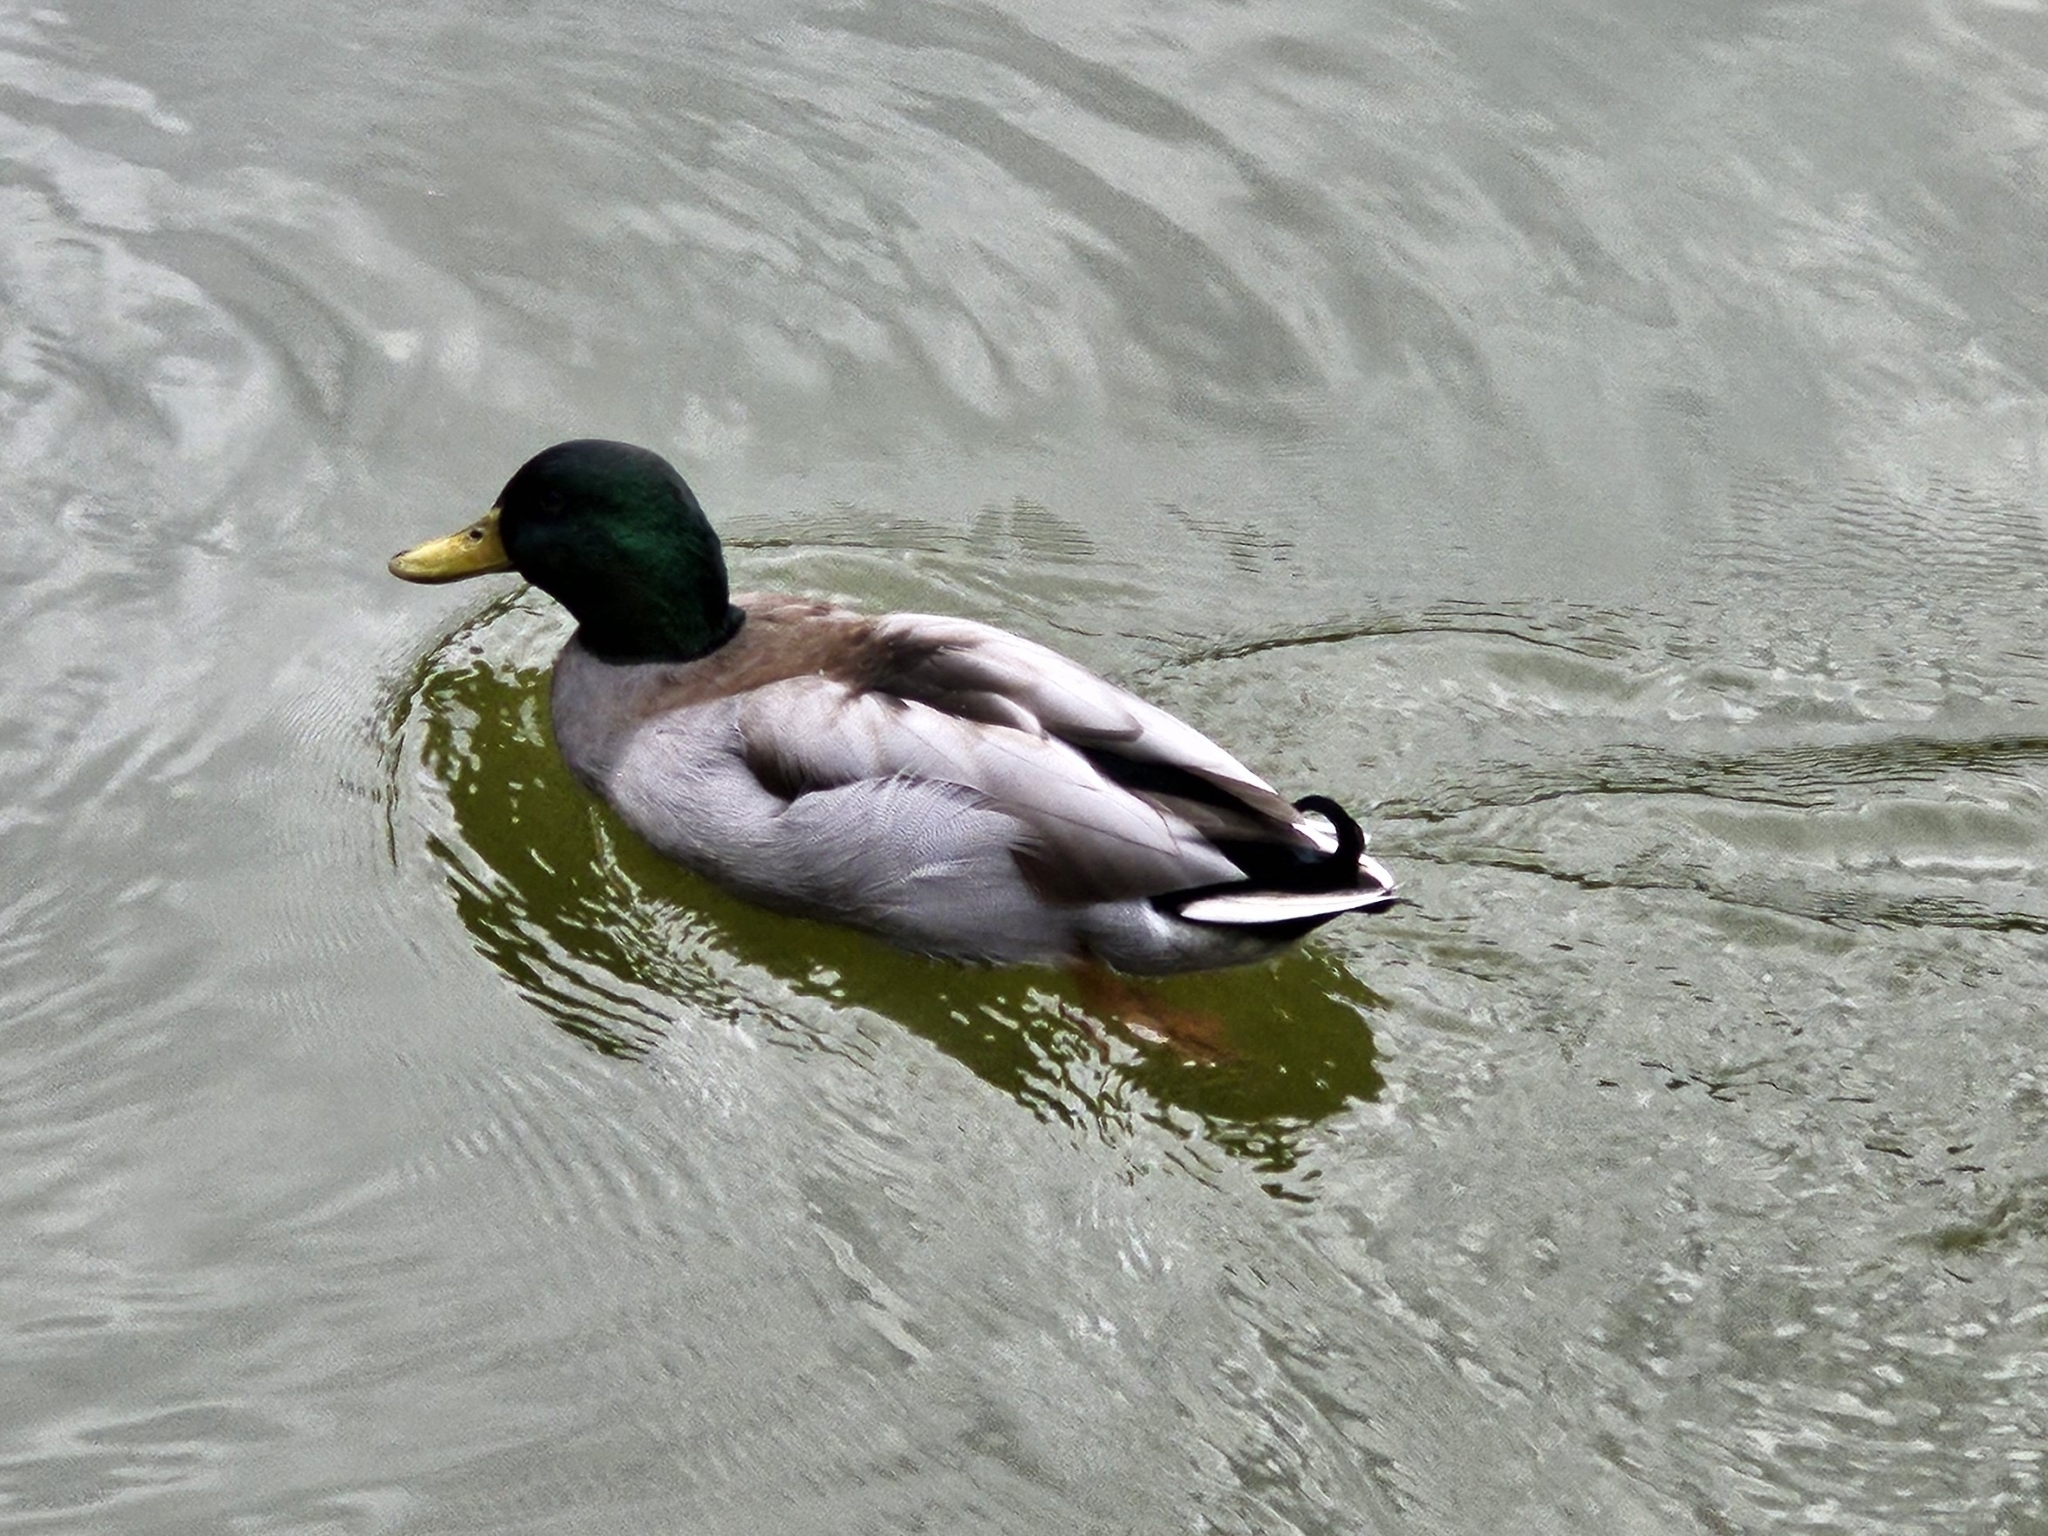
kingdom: Animalia
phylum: Chordata
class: Aves
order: Anseriformes
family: Anatidae
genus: Anas
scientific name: Anas platyrhynchos
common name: Mallard
